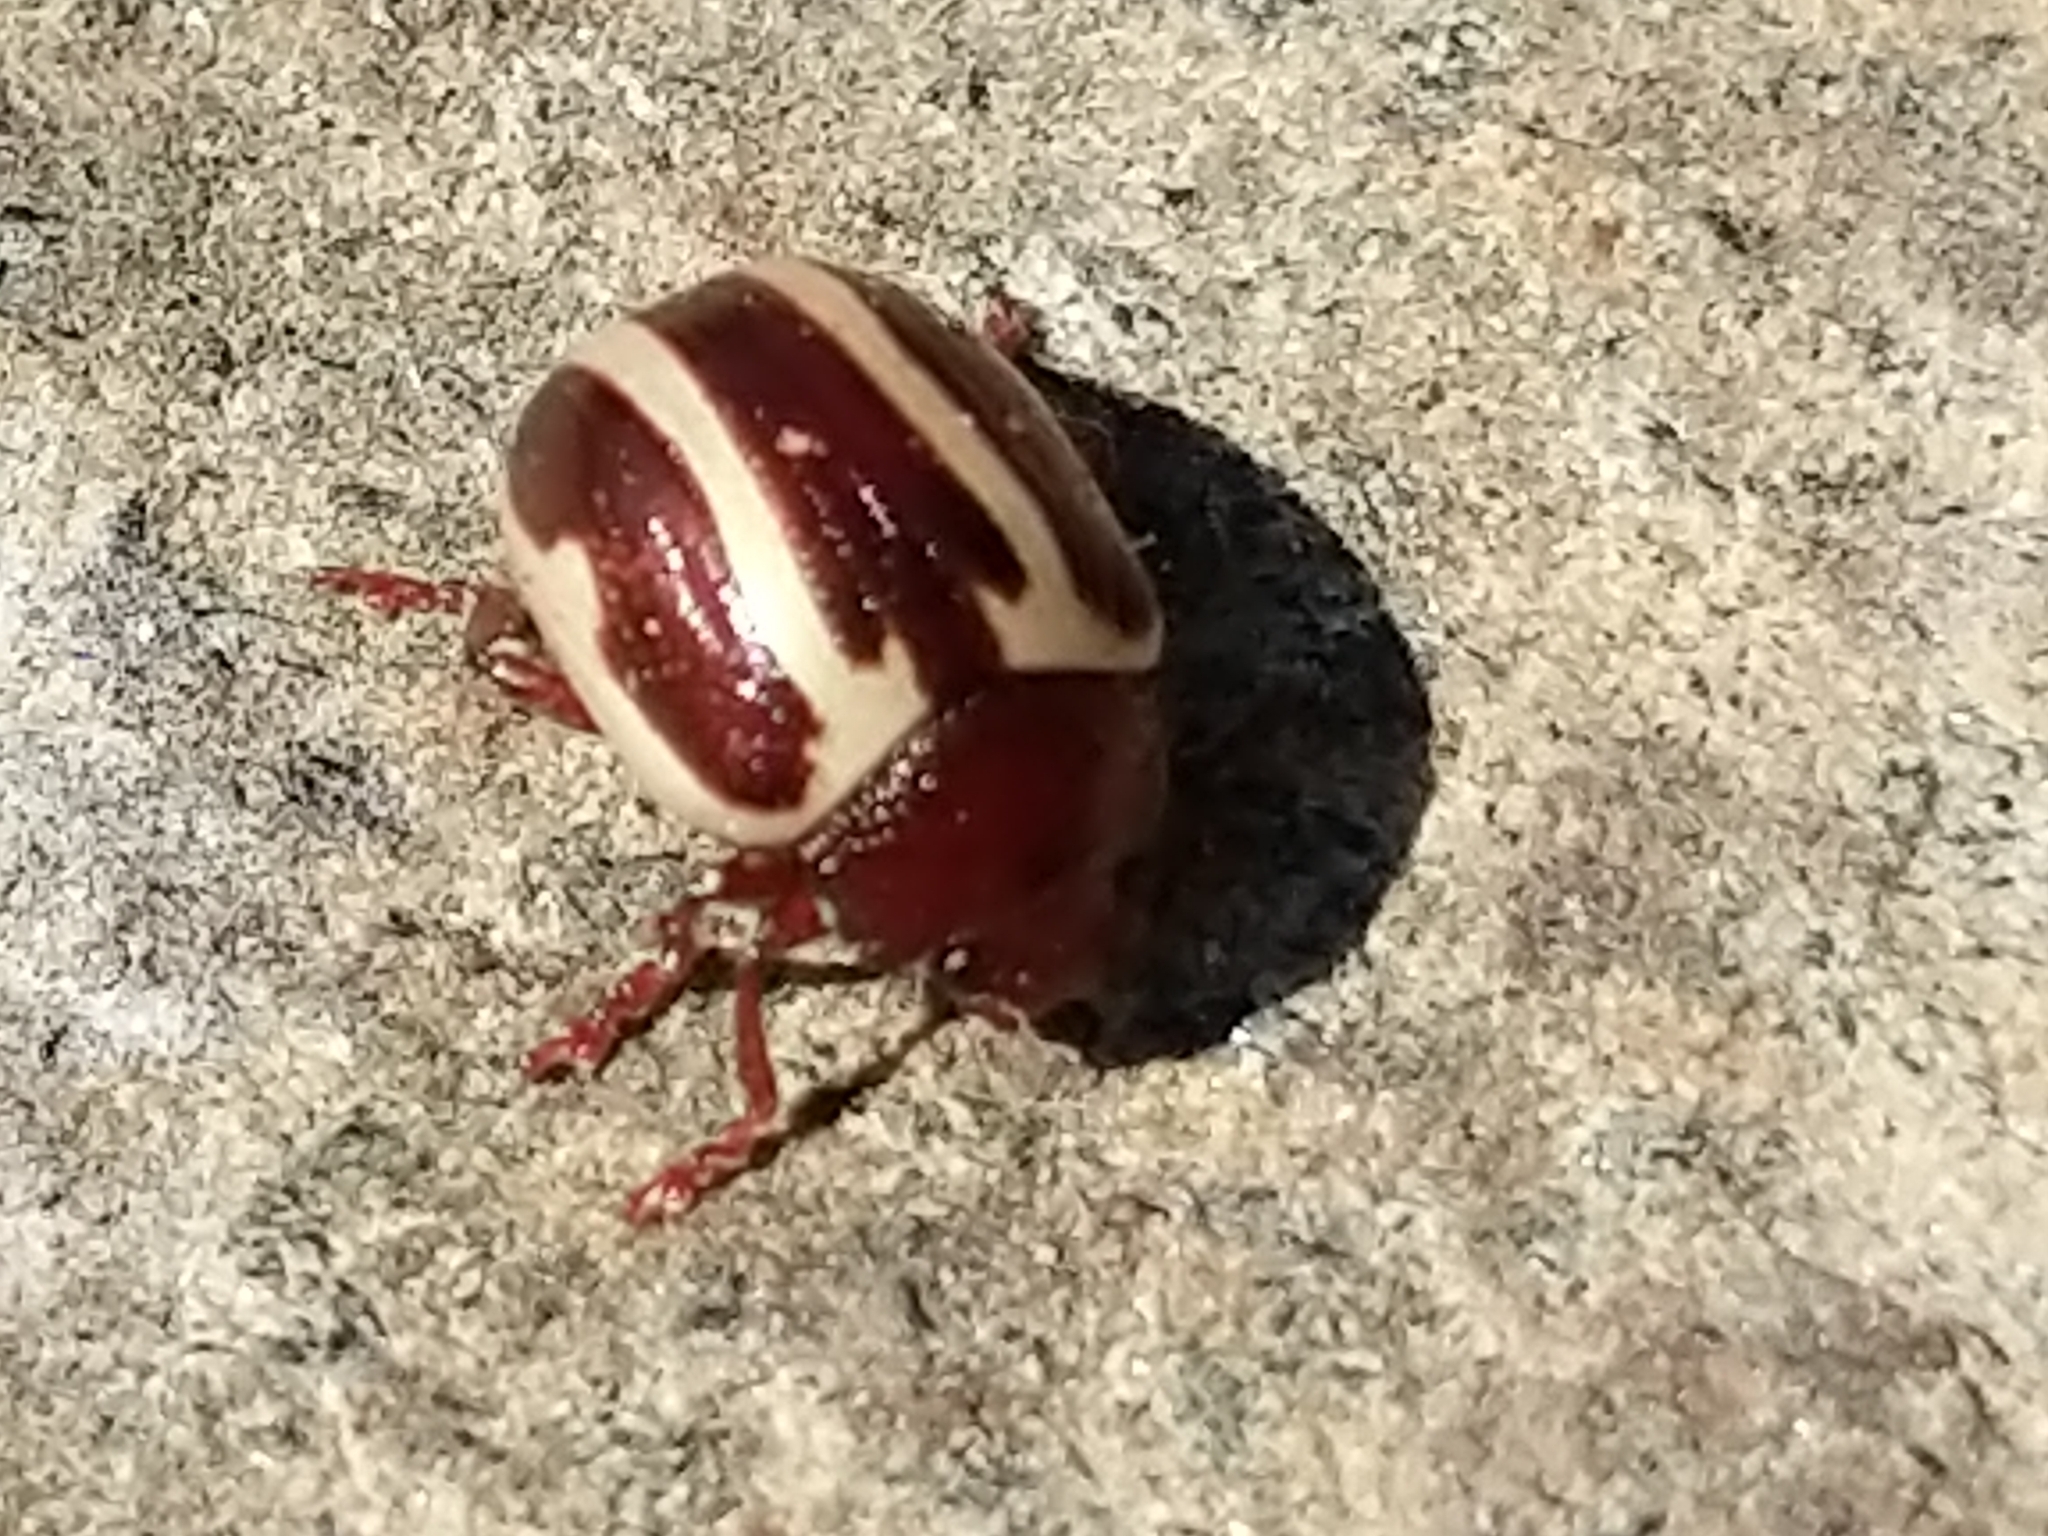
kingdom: Animalia
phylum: Arthropoda
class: Insecta
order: Coleoptera
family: Chrysomelidae
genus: Calligrapha
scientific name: Calligrapha bidenticola
